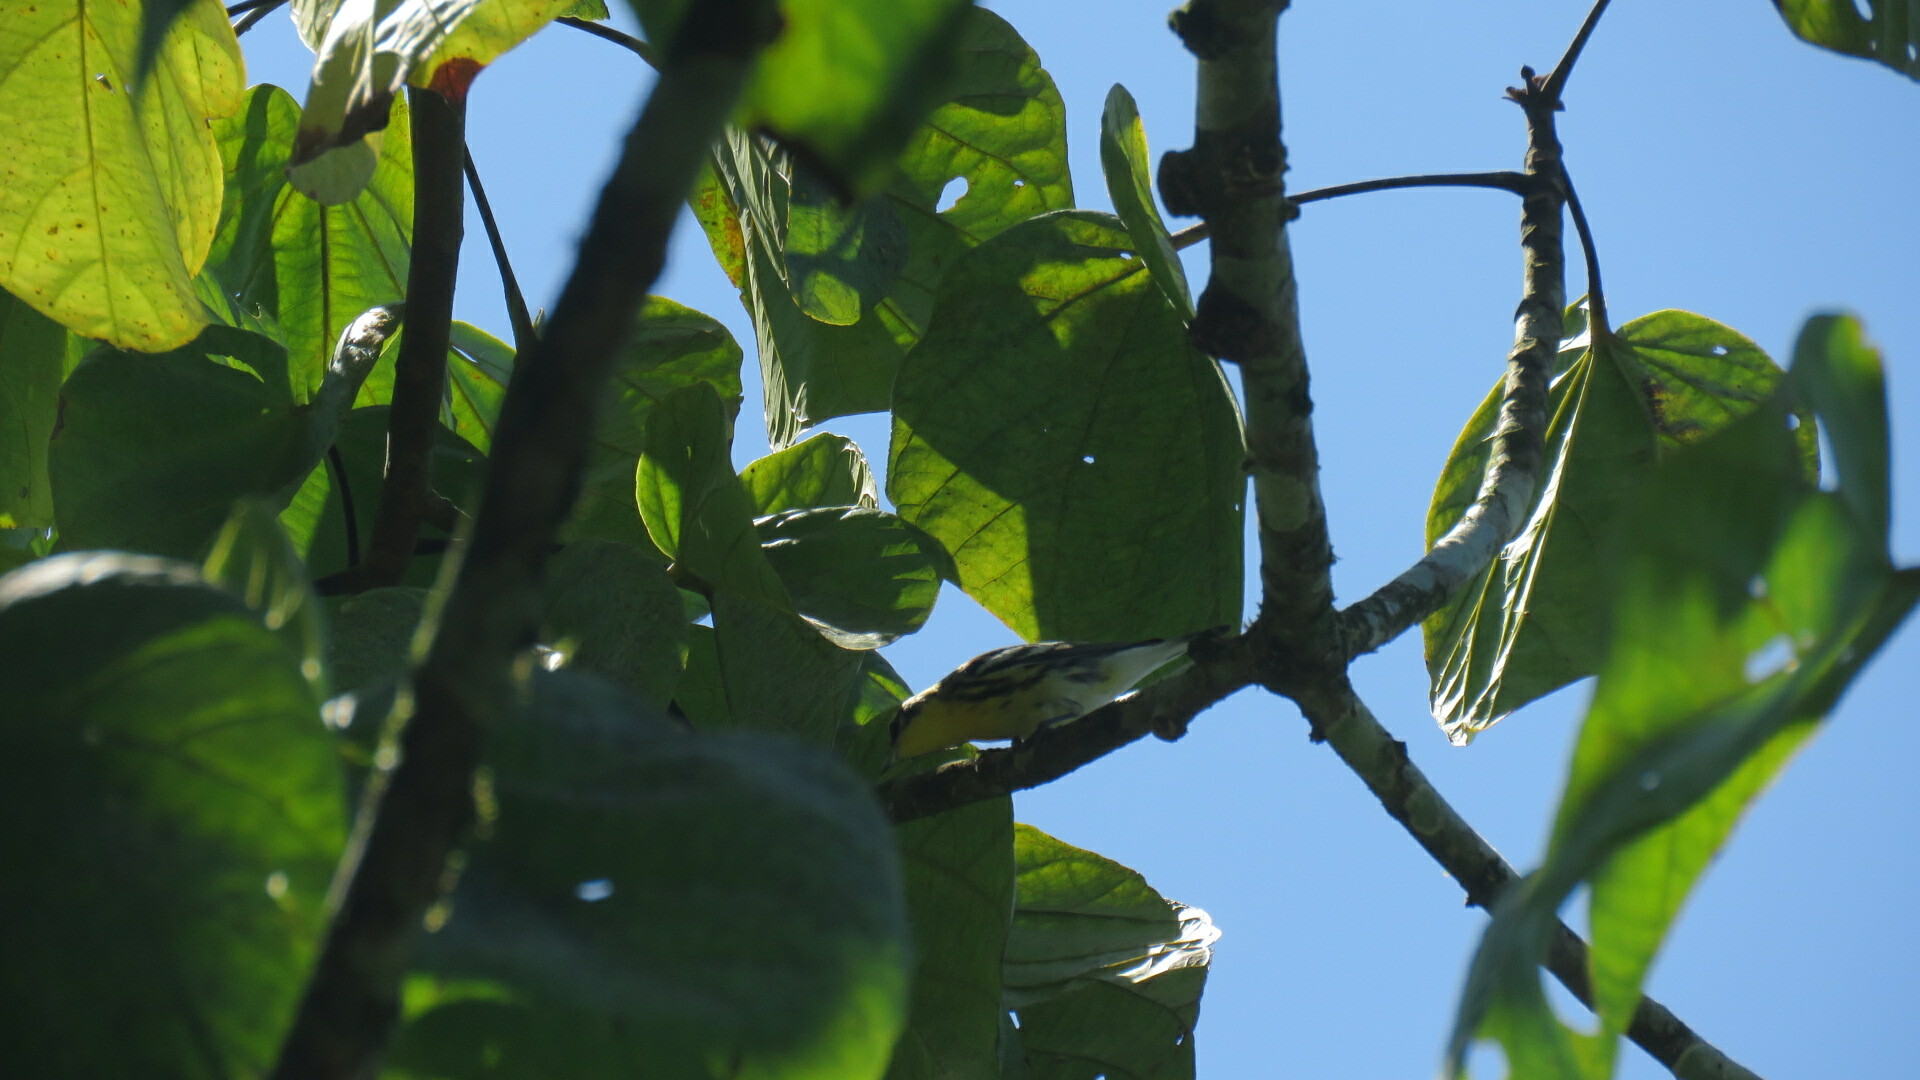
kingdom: Animalia
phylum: Chordata
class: Aves
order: Passeriformes
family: Parulidae
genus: Setophaga
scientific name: Setophaga fusca
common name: Blackburnian warbler
